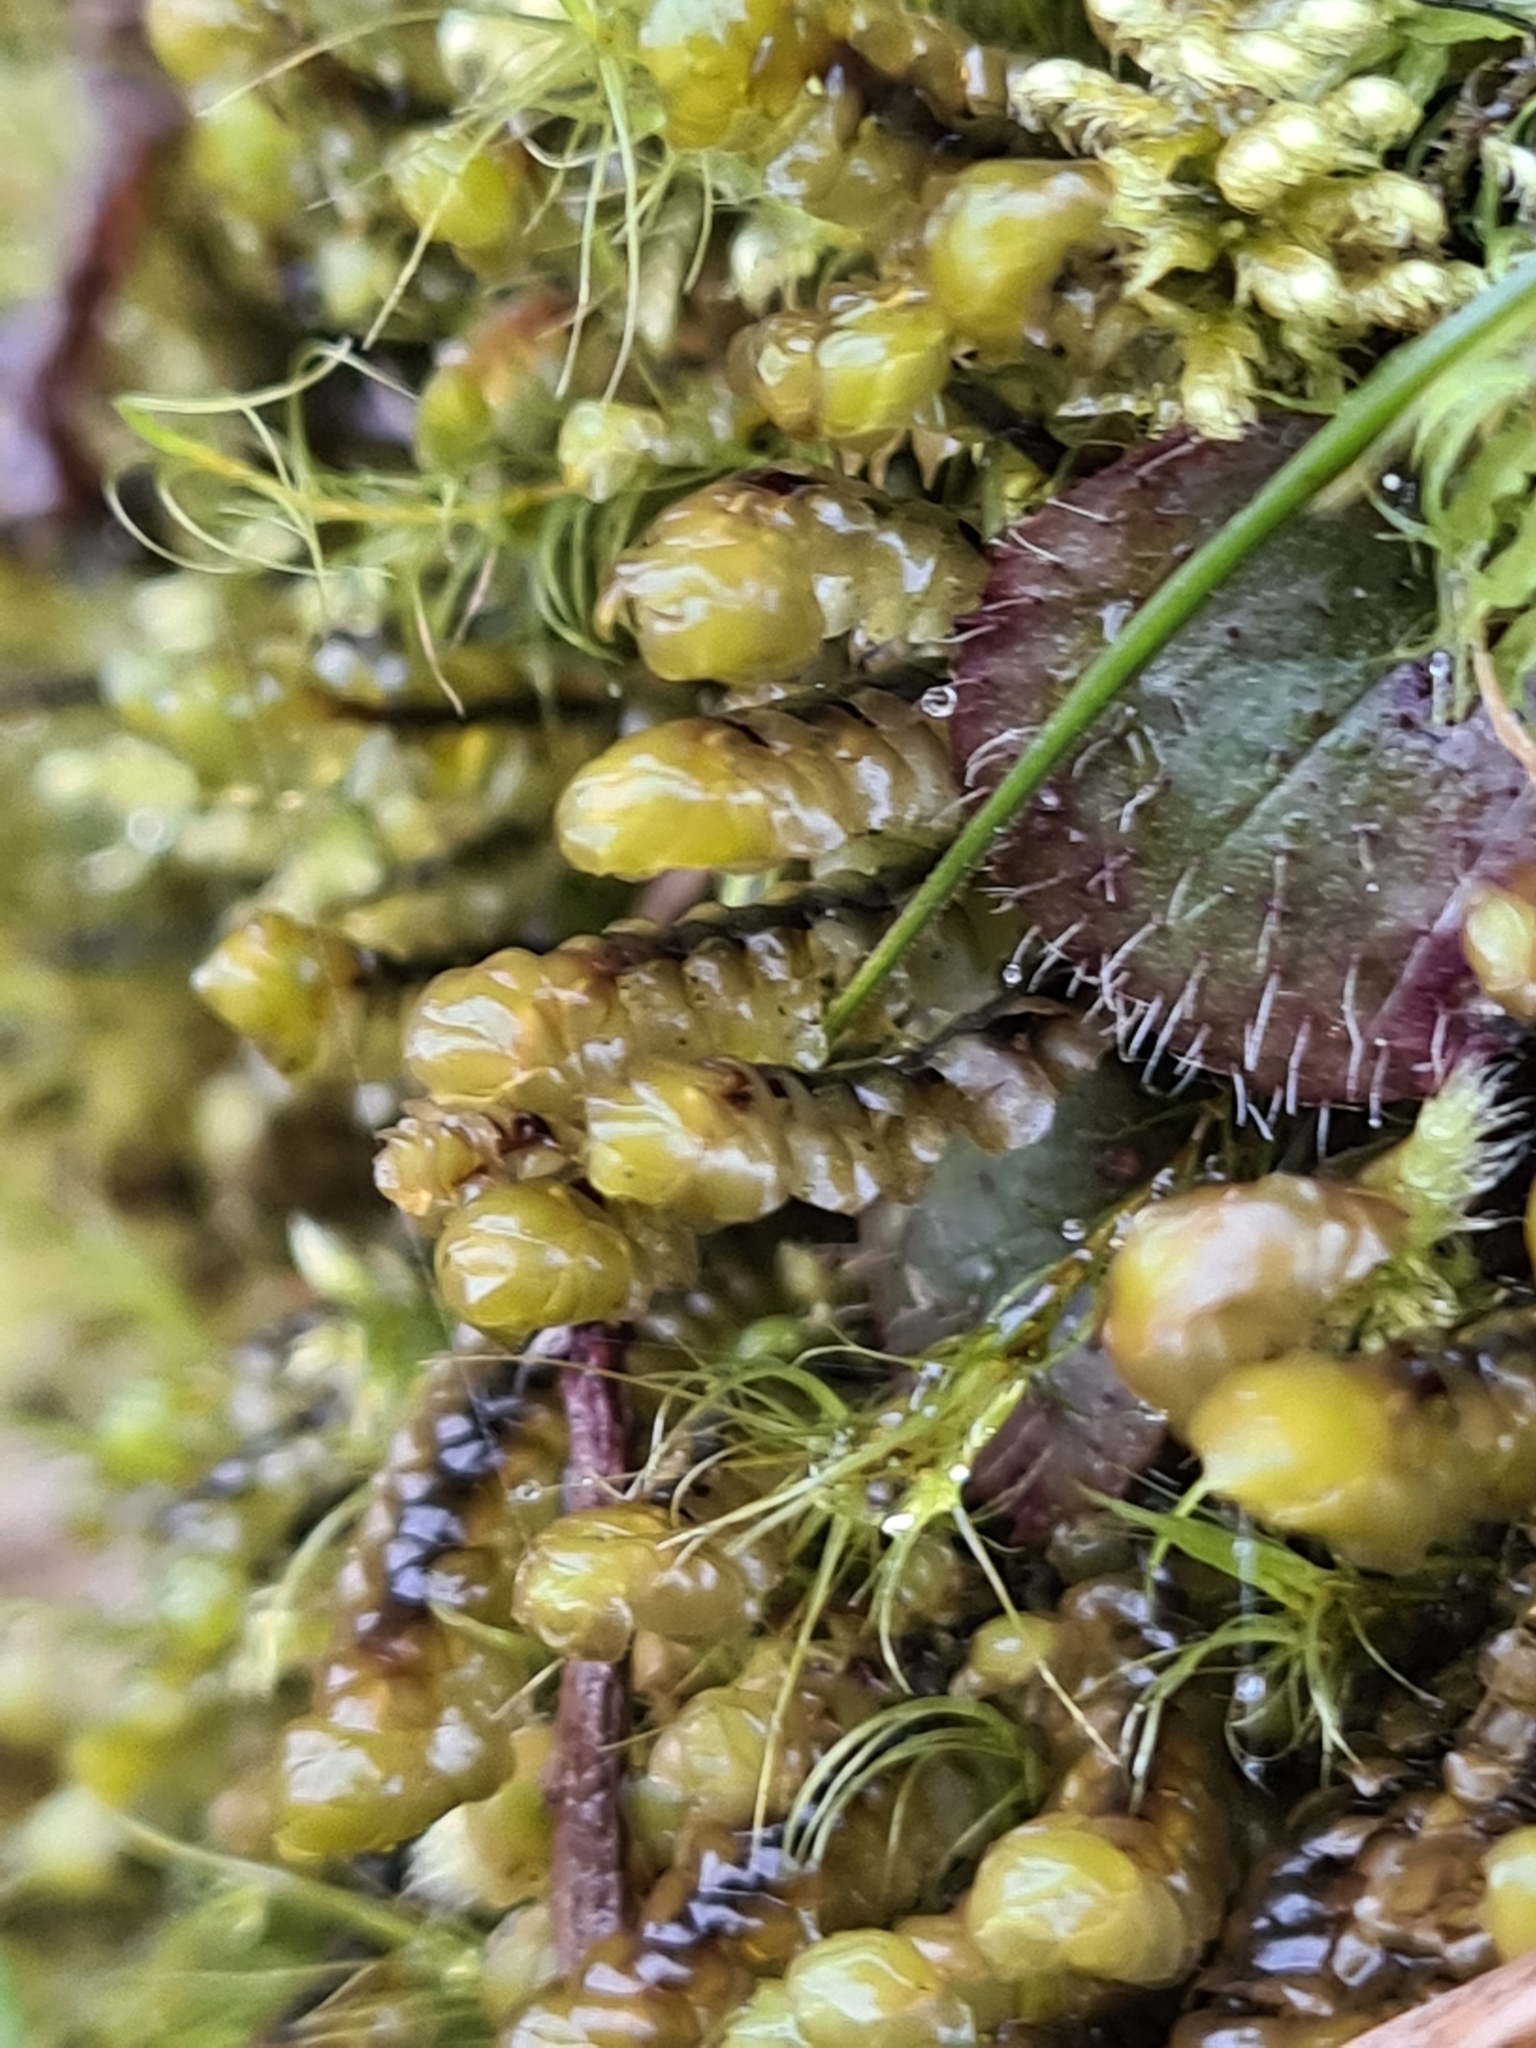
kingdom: Plantae
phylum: Marchantiophyta
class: Jungermanniopsida
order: Jungermanniales
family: Scapaniaceae
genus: Scapania
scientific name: Scapania aspera
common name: Rough earwort
